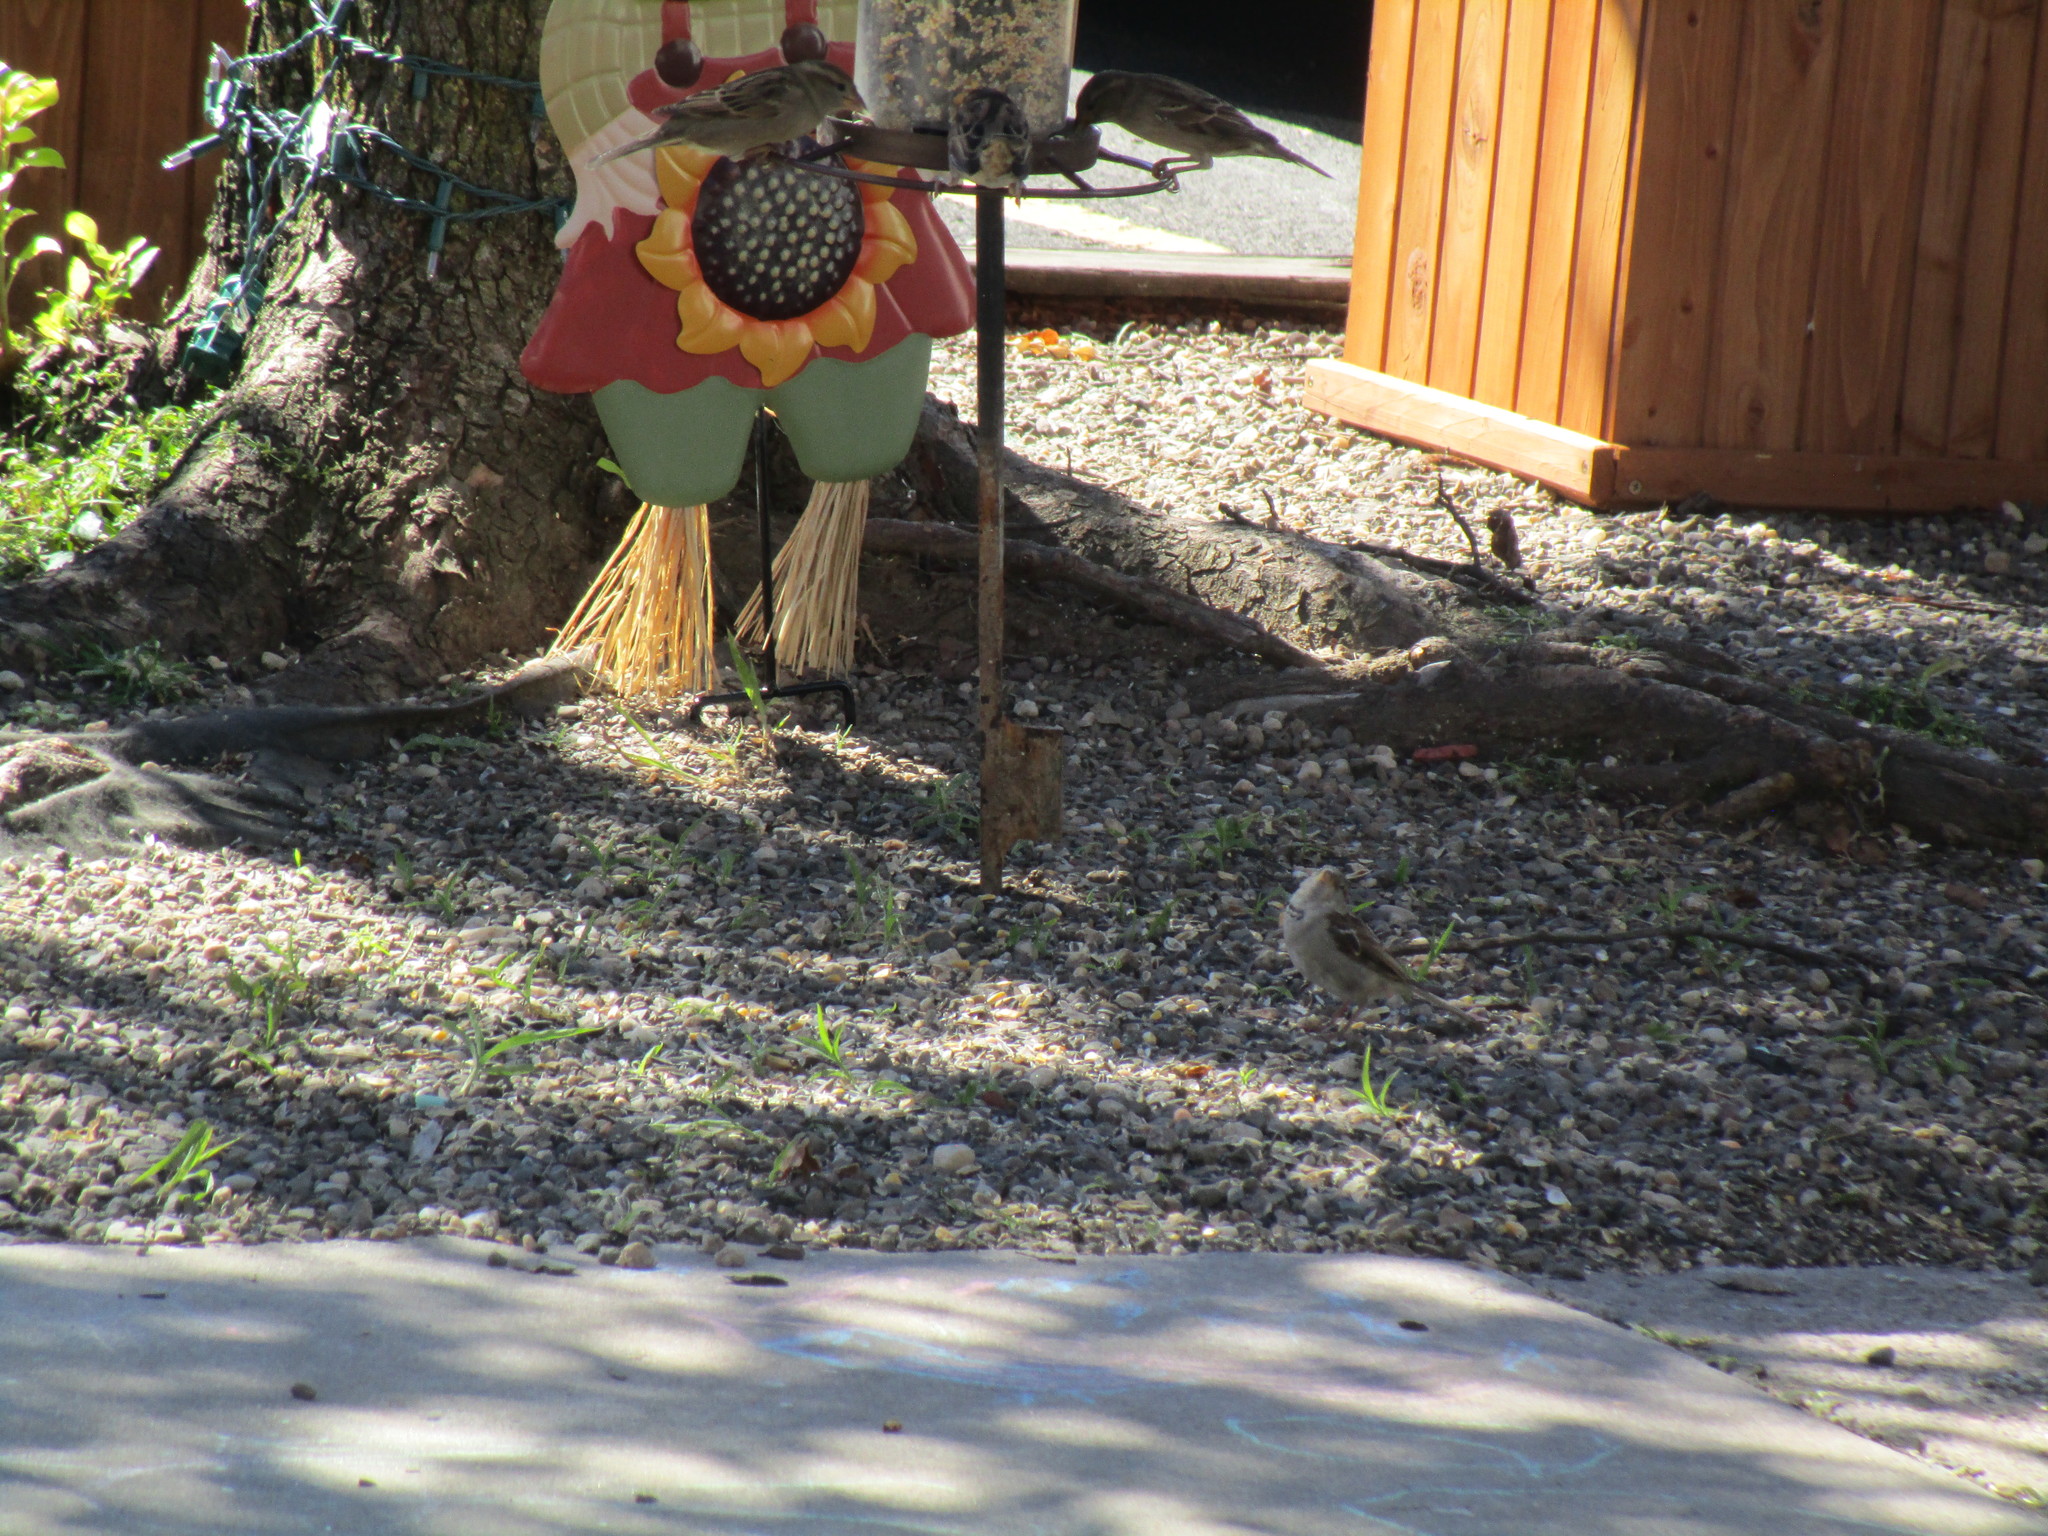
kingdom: Animalia
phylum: Chordata
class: Aves
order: Passeriformes
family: Passeridae
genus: Passer
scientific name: Passer domesticus
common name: House sparrow
